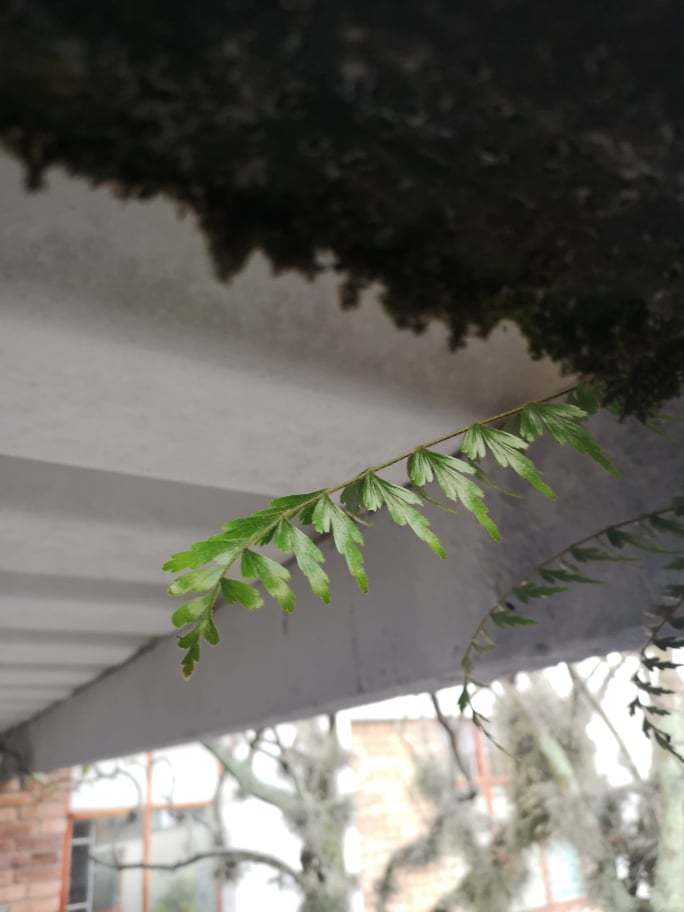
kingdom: Plantae
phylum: Tracheophyta
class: Polypodiopsida
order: Polypodiales
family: Aspleniaceae
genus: Asplenium
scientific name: Asplenium praemorsum
